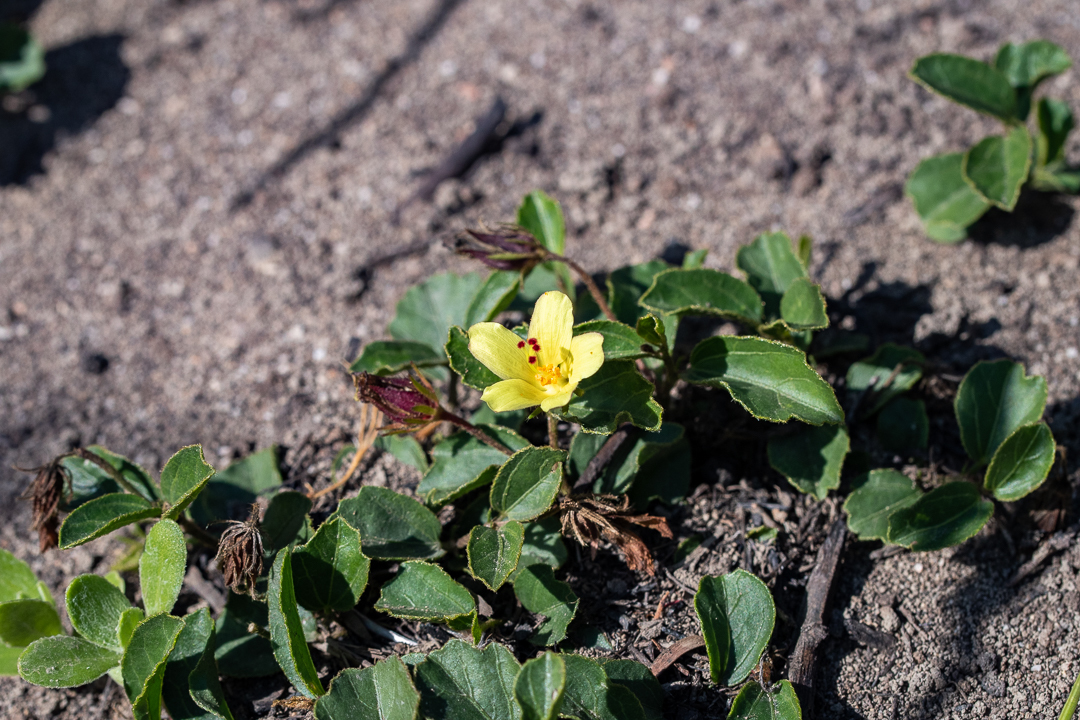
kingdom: Plantae
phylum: Tracheophyta
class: Magnoliopsida
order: Malvales
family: Malvaceae
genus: Hibiscus
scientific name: Hibiscus aethiopicus
